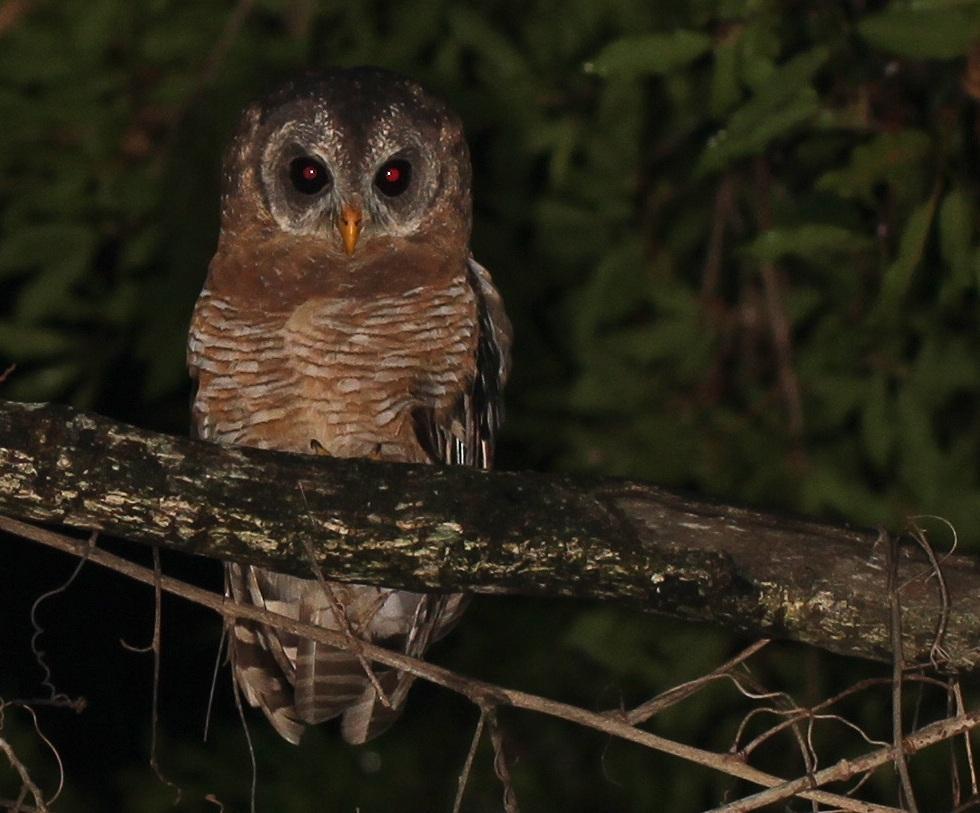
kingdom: Animalia
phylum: Chordata
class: Aves
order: Strigiformes
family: Strigidae
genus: Strix
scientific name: Strix woodfordii
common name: African wood owl
